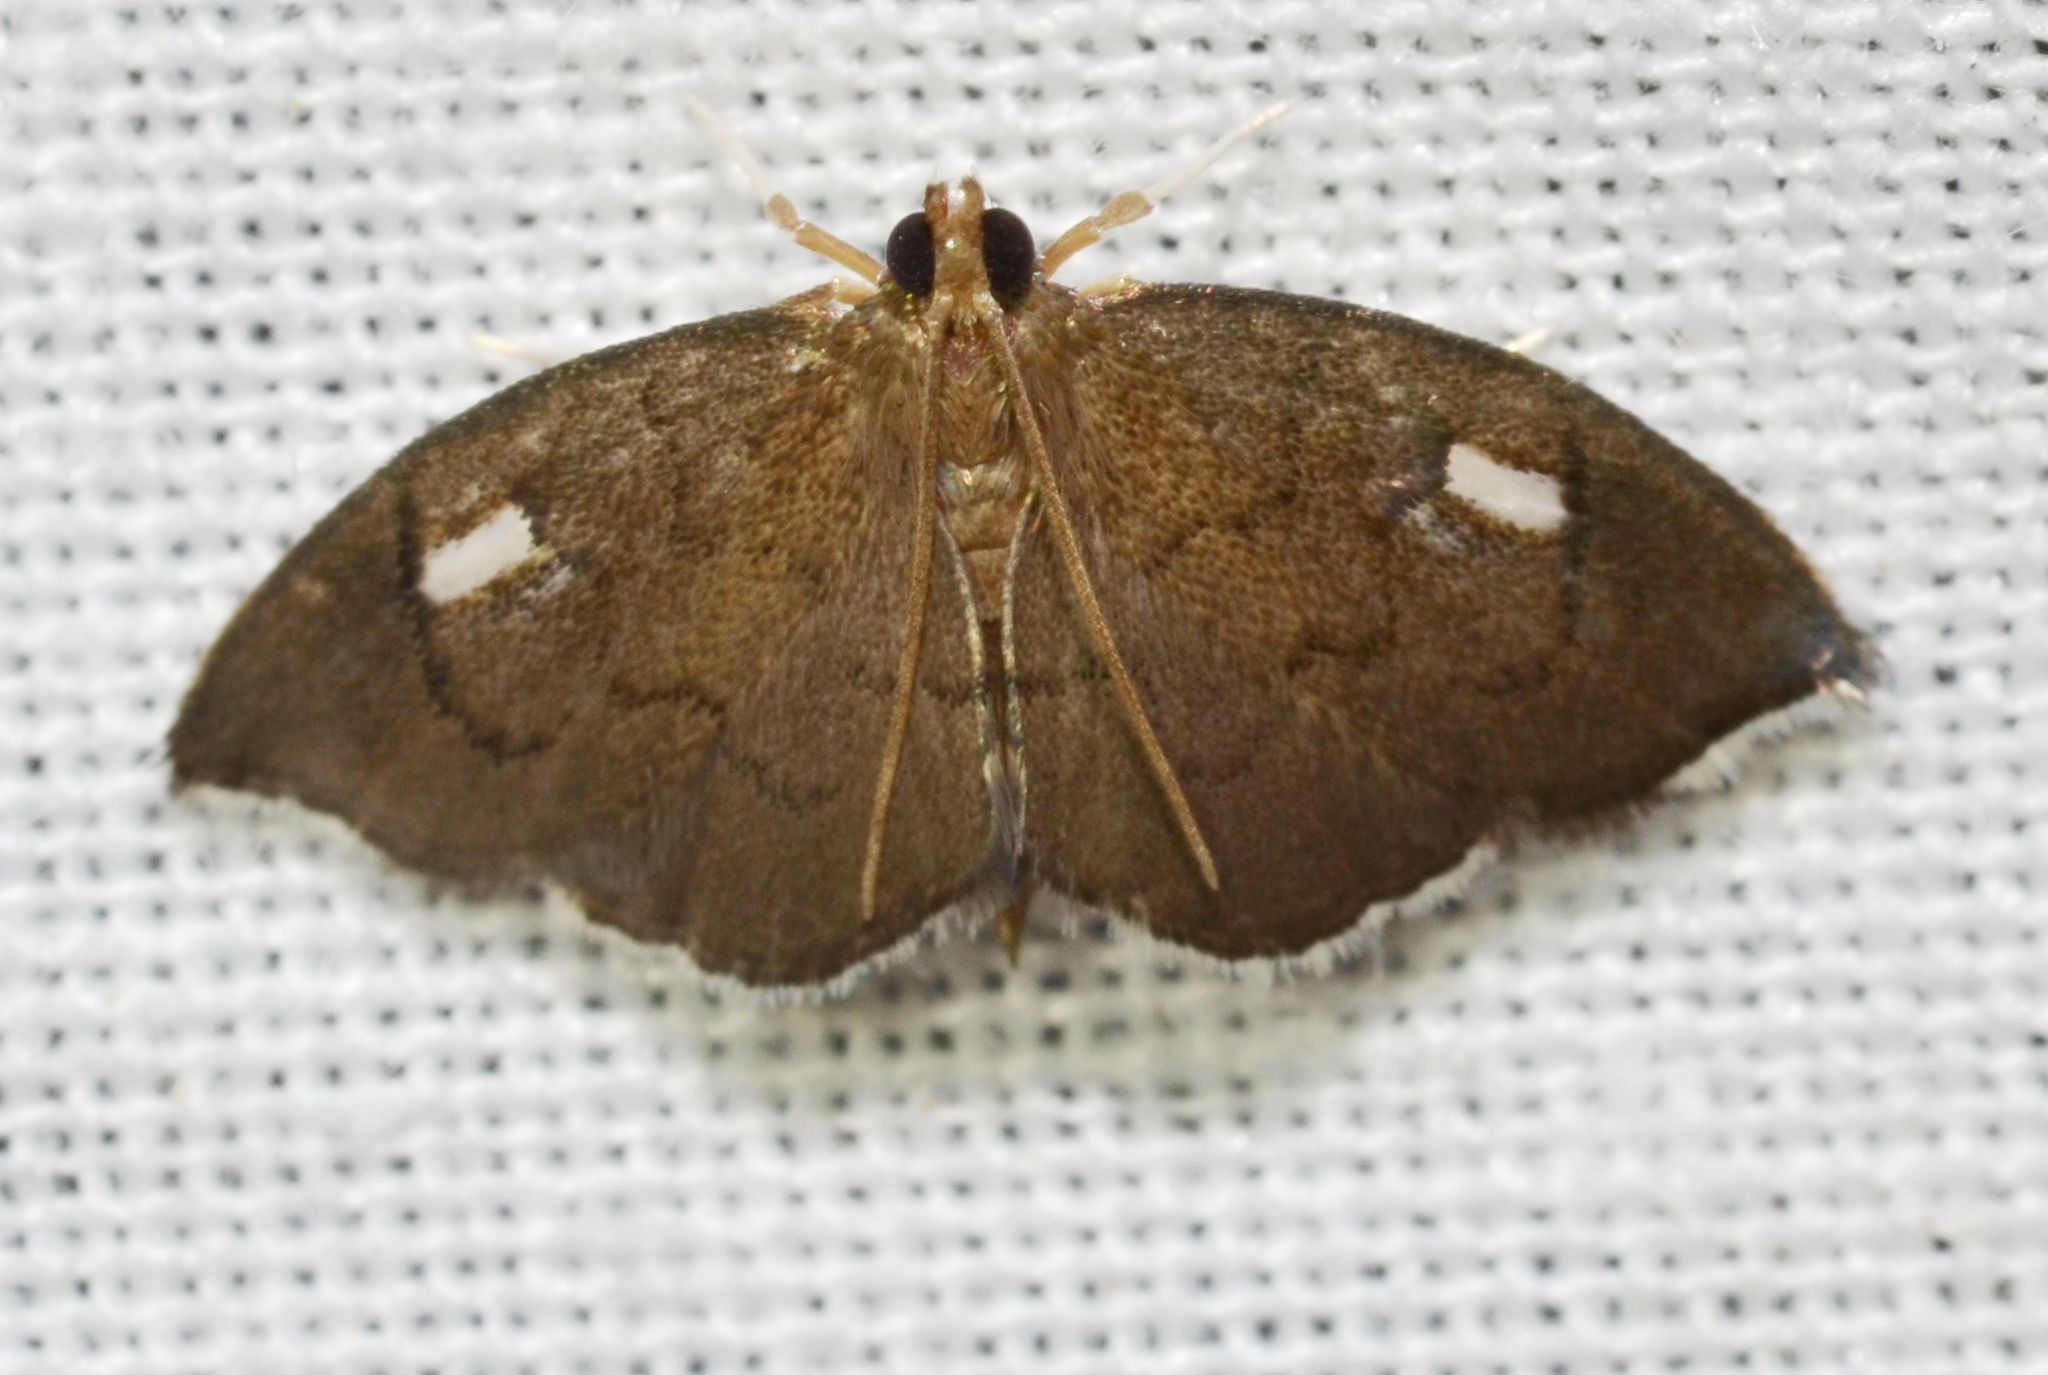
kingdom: Animalia
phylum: Arthropoda
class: Insecta
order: Lepidoptera
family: Crambidae
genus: Perispasta
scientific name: Perispasta caeculalis
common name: Titian peale's moth
